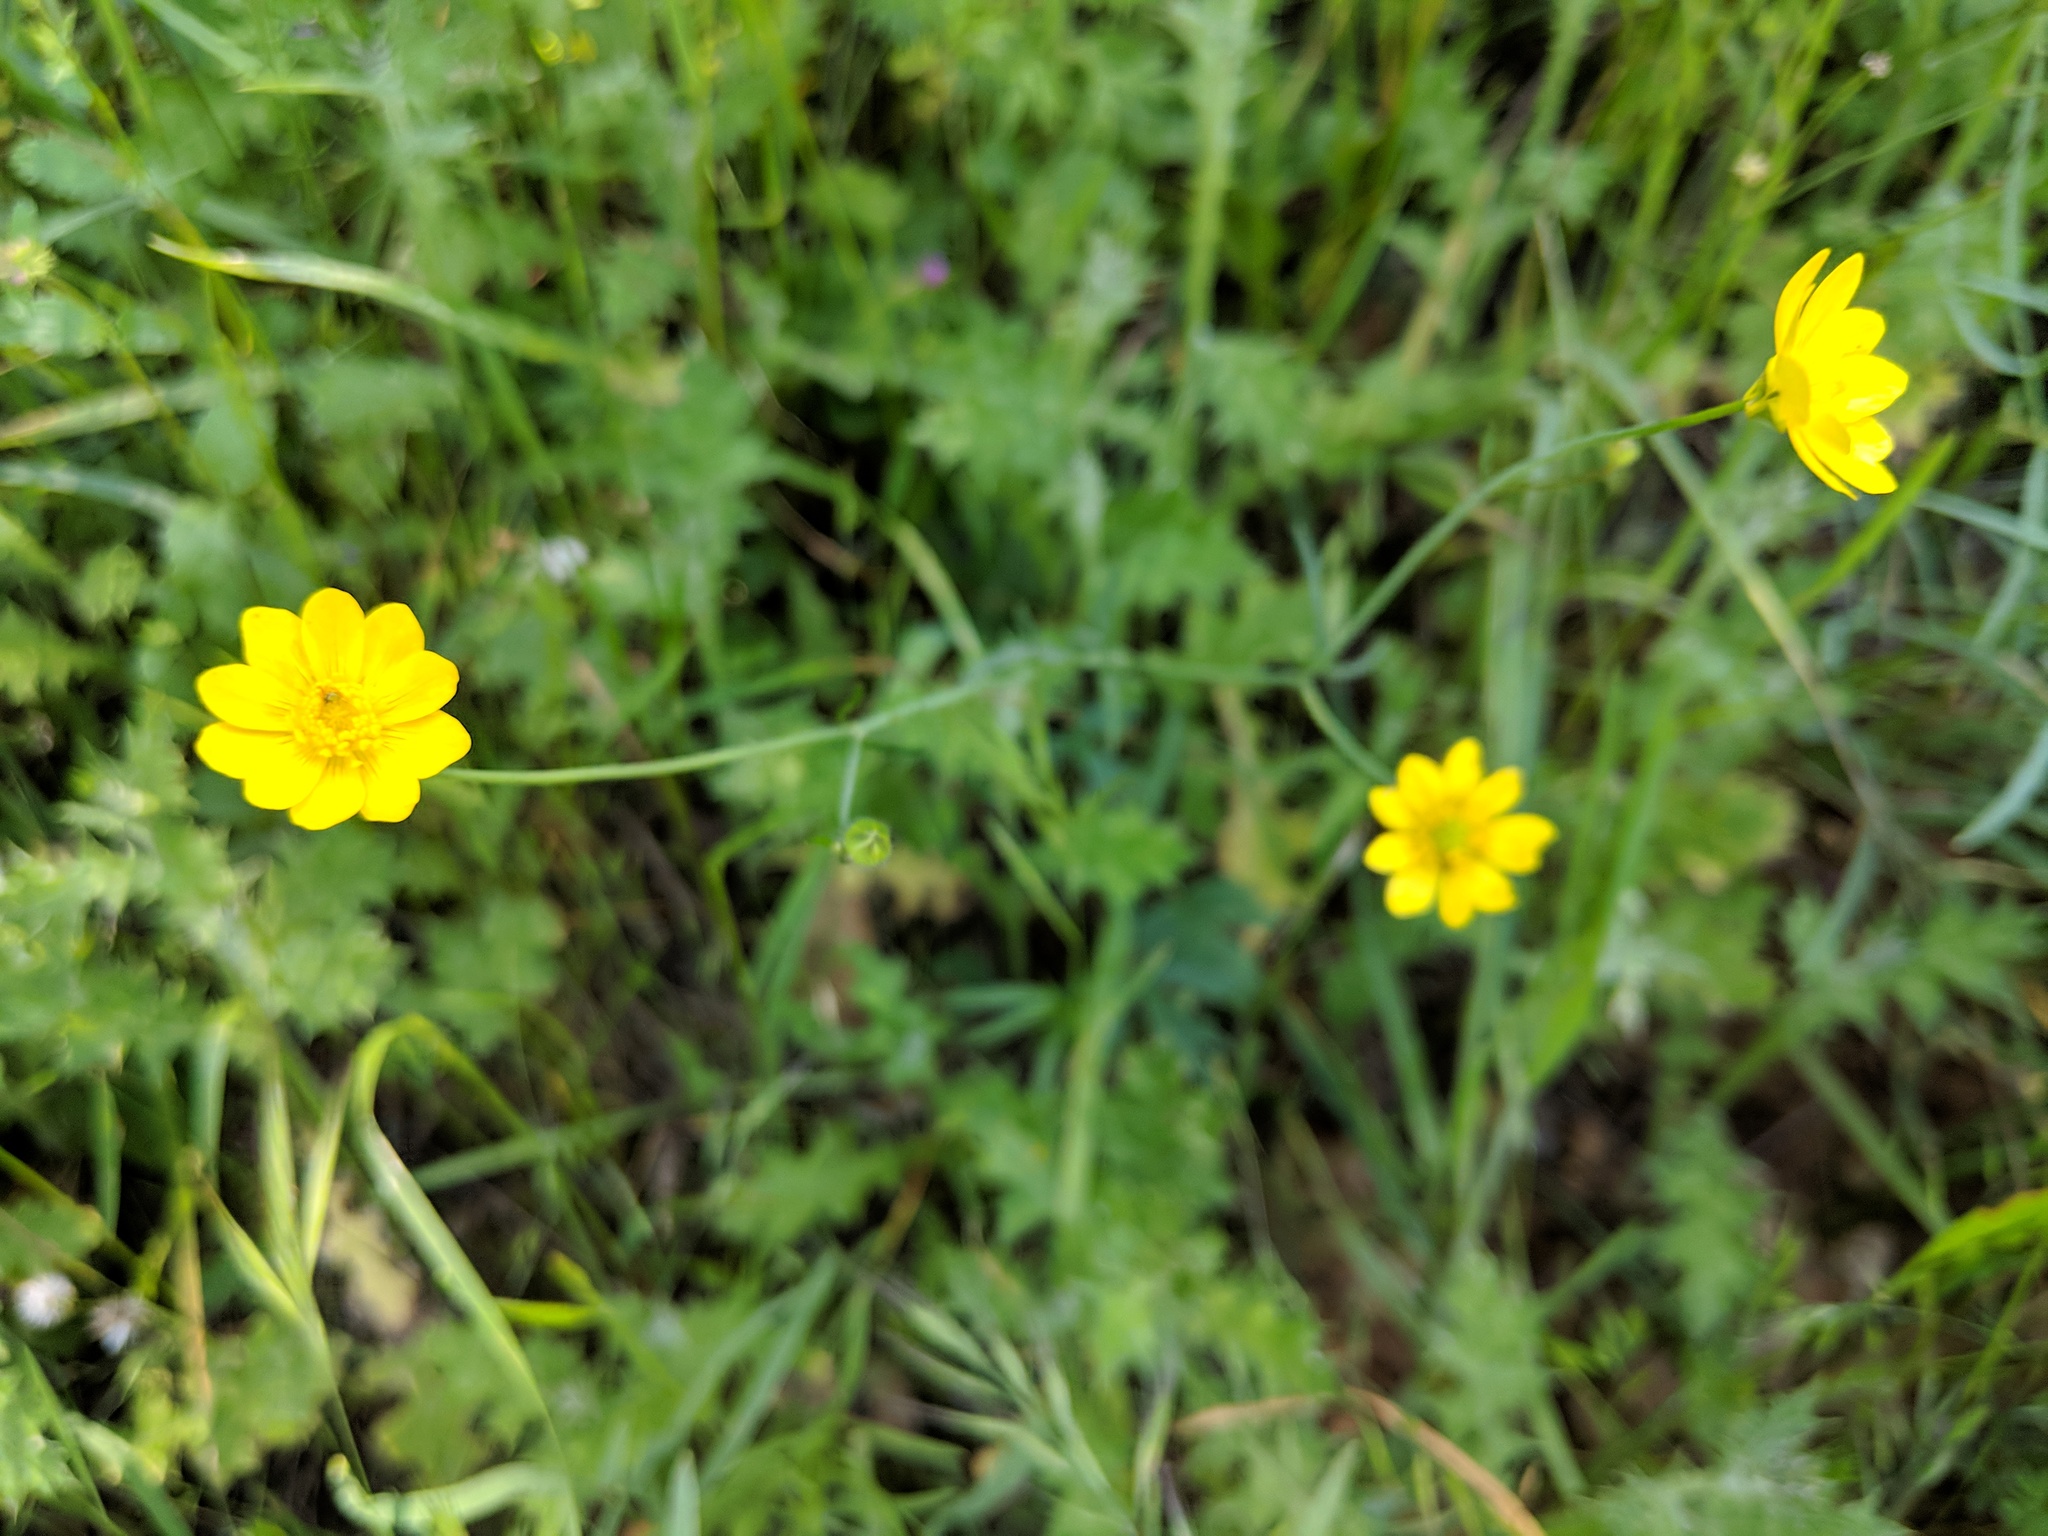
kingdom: Plantae
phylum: Tracheophyta
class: Magnoliopsida
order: Ranunculales
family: Ranunculaceae
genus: Ranunculus
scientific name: Ranunculus californicus
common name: California buttercup
